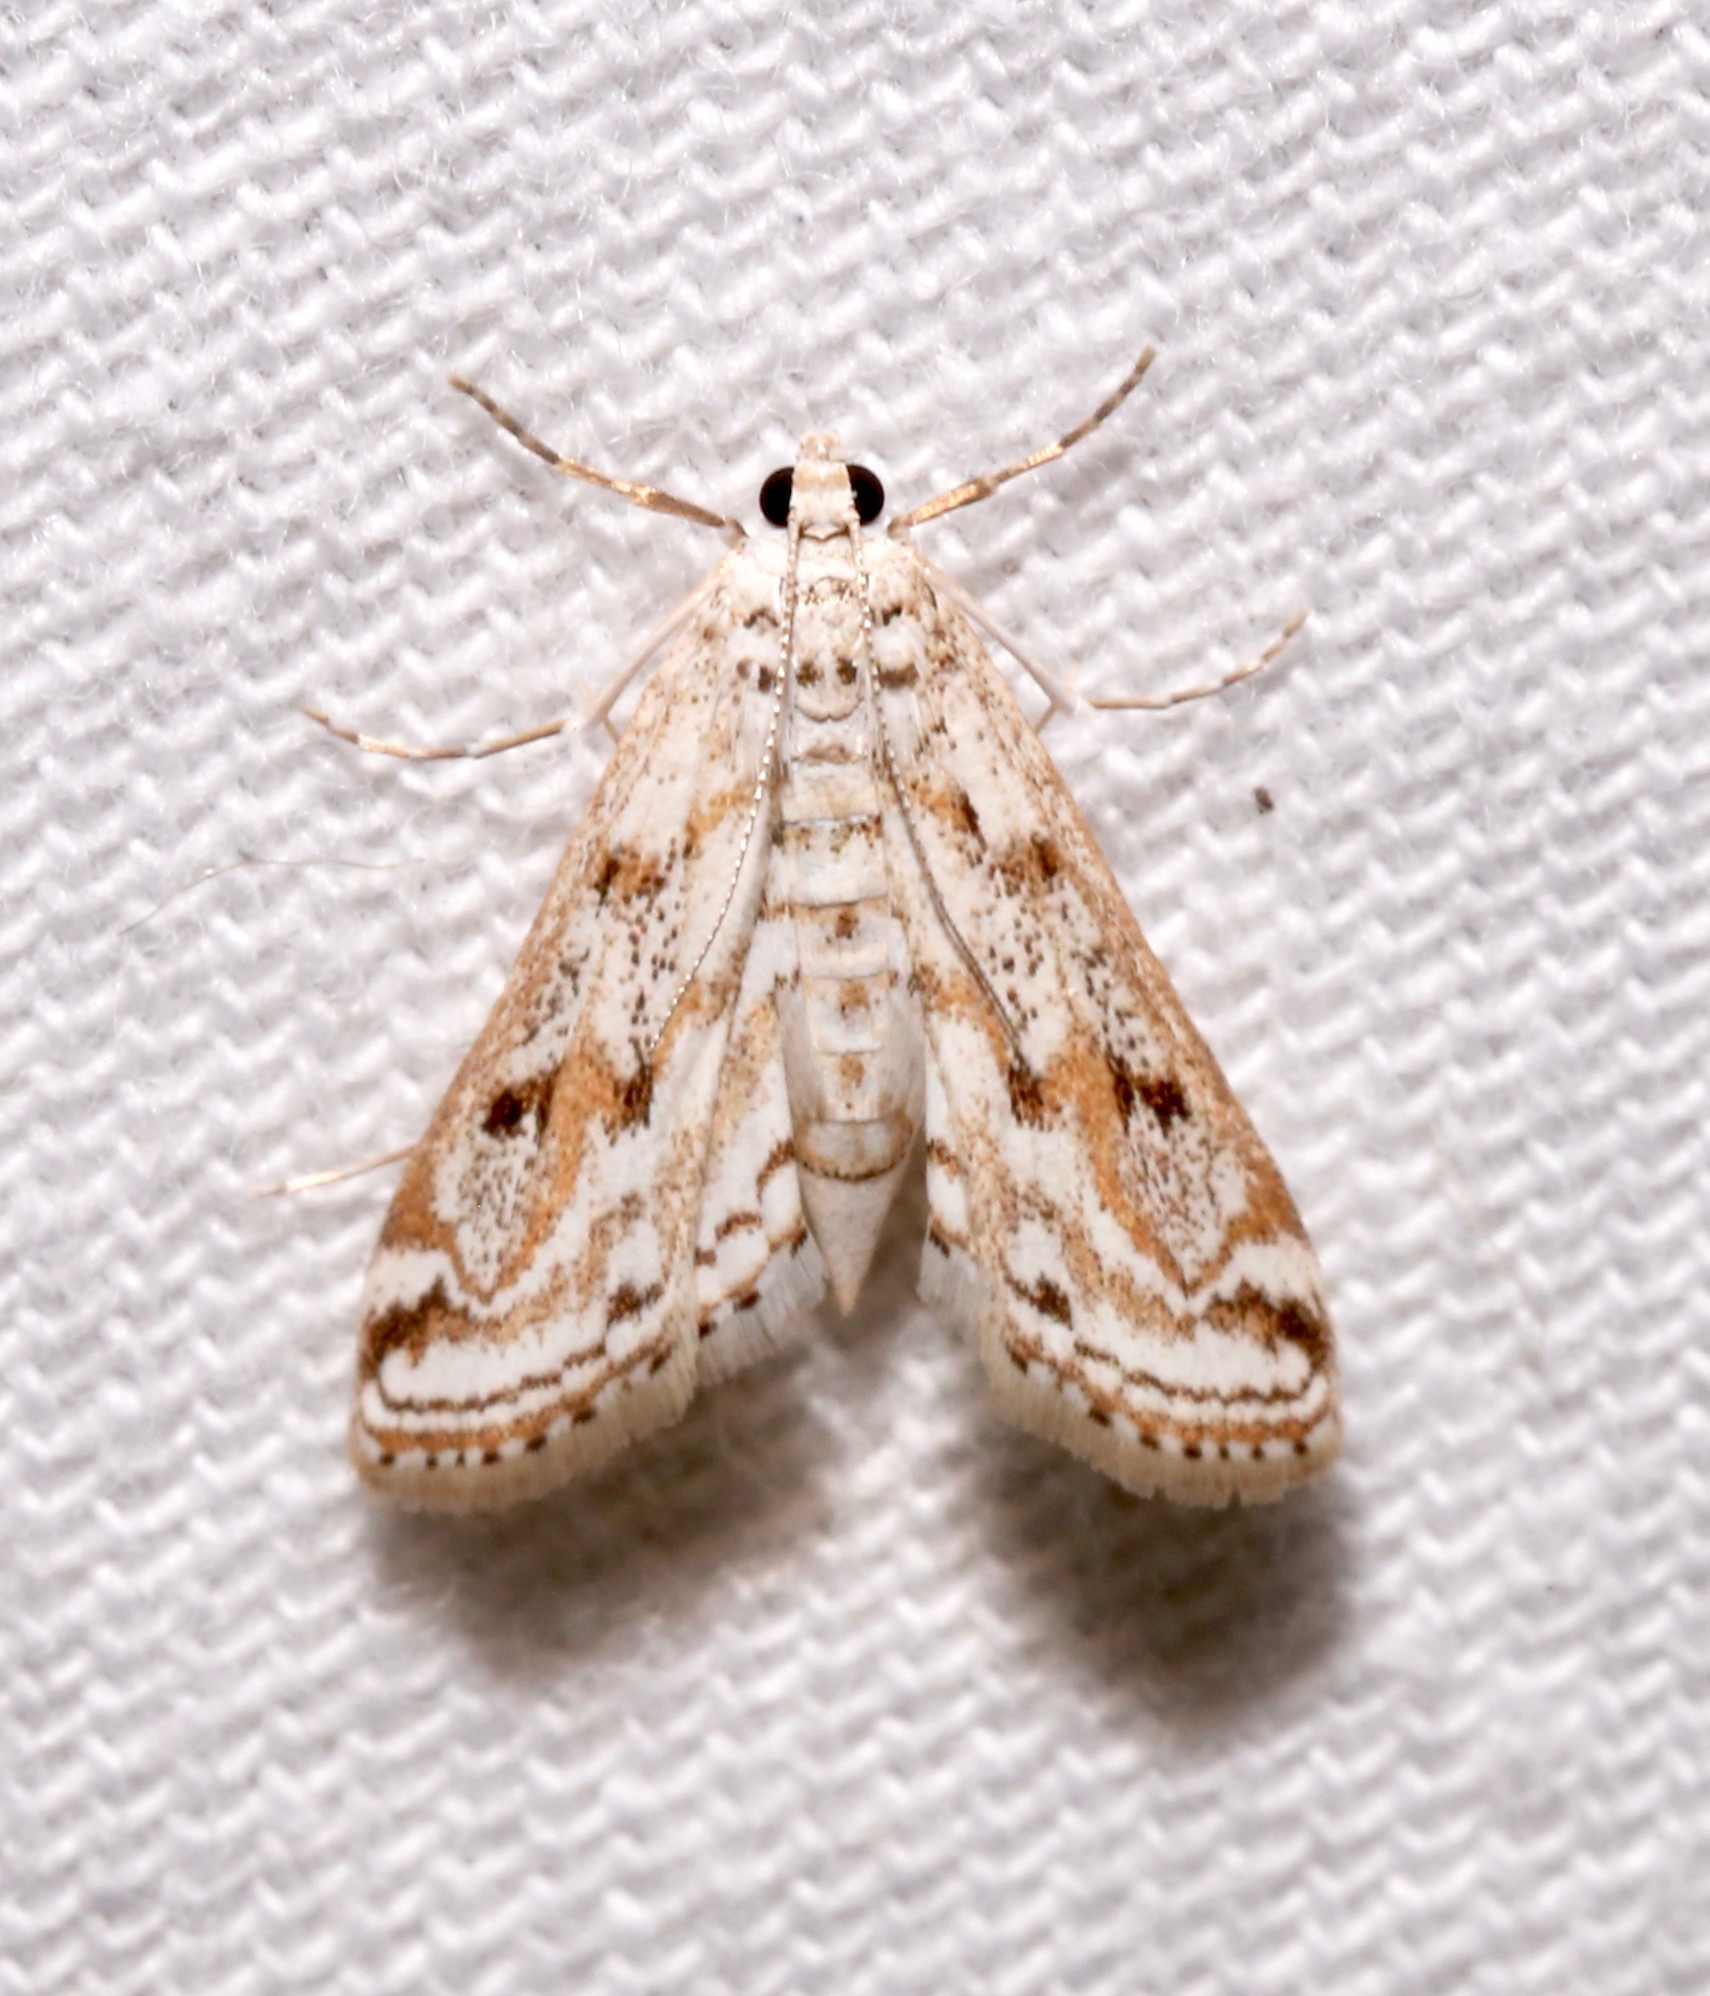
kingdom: Animalia
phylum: Arthropoda
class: Insecta
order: Lepidoptera
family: Crambidae
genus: Parapoynx
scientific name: Parapoynx allionealis
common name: Bladderwort casemaker
